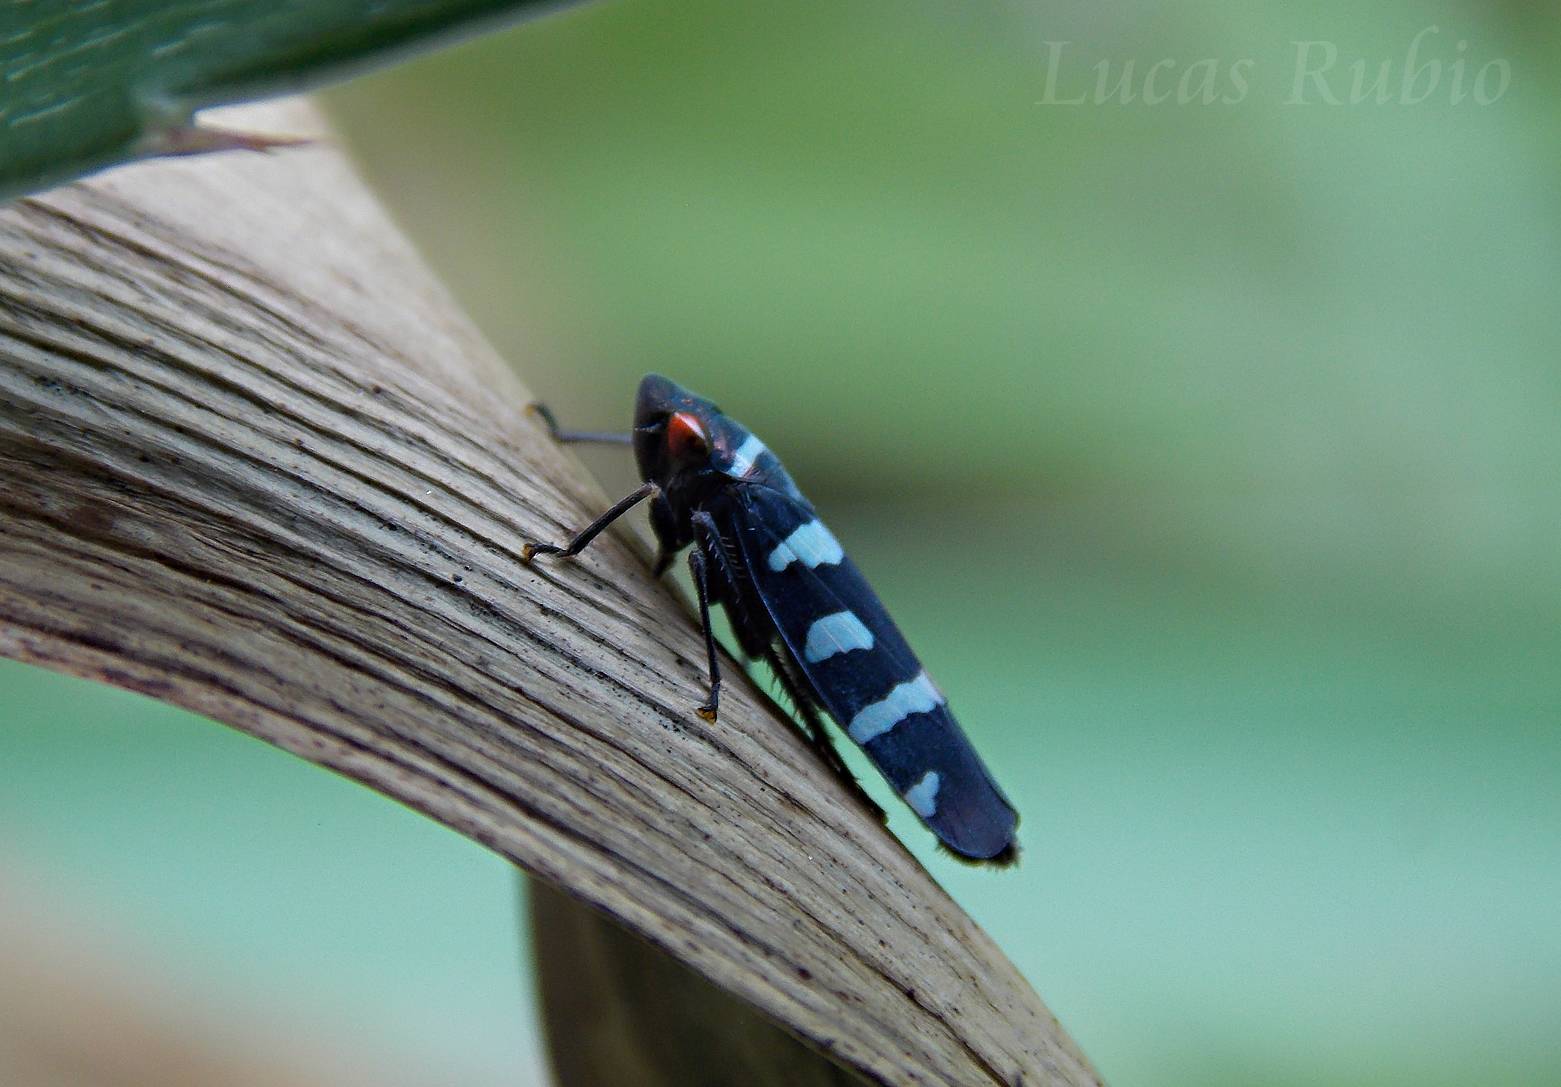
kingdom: Animalia
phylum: Arthropoda
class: Insecta
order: Hemiptera
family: Cicadellidae
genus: Balacha
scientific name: Balacha melanocephala
